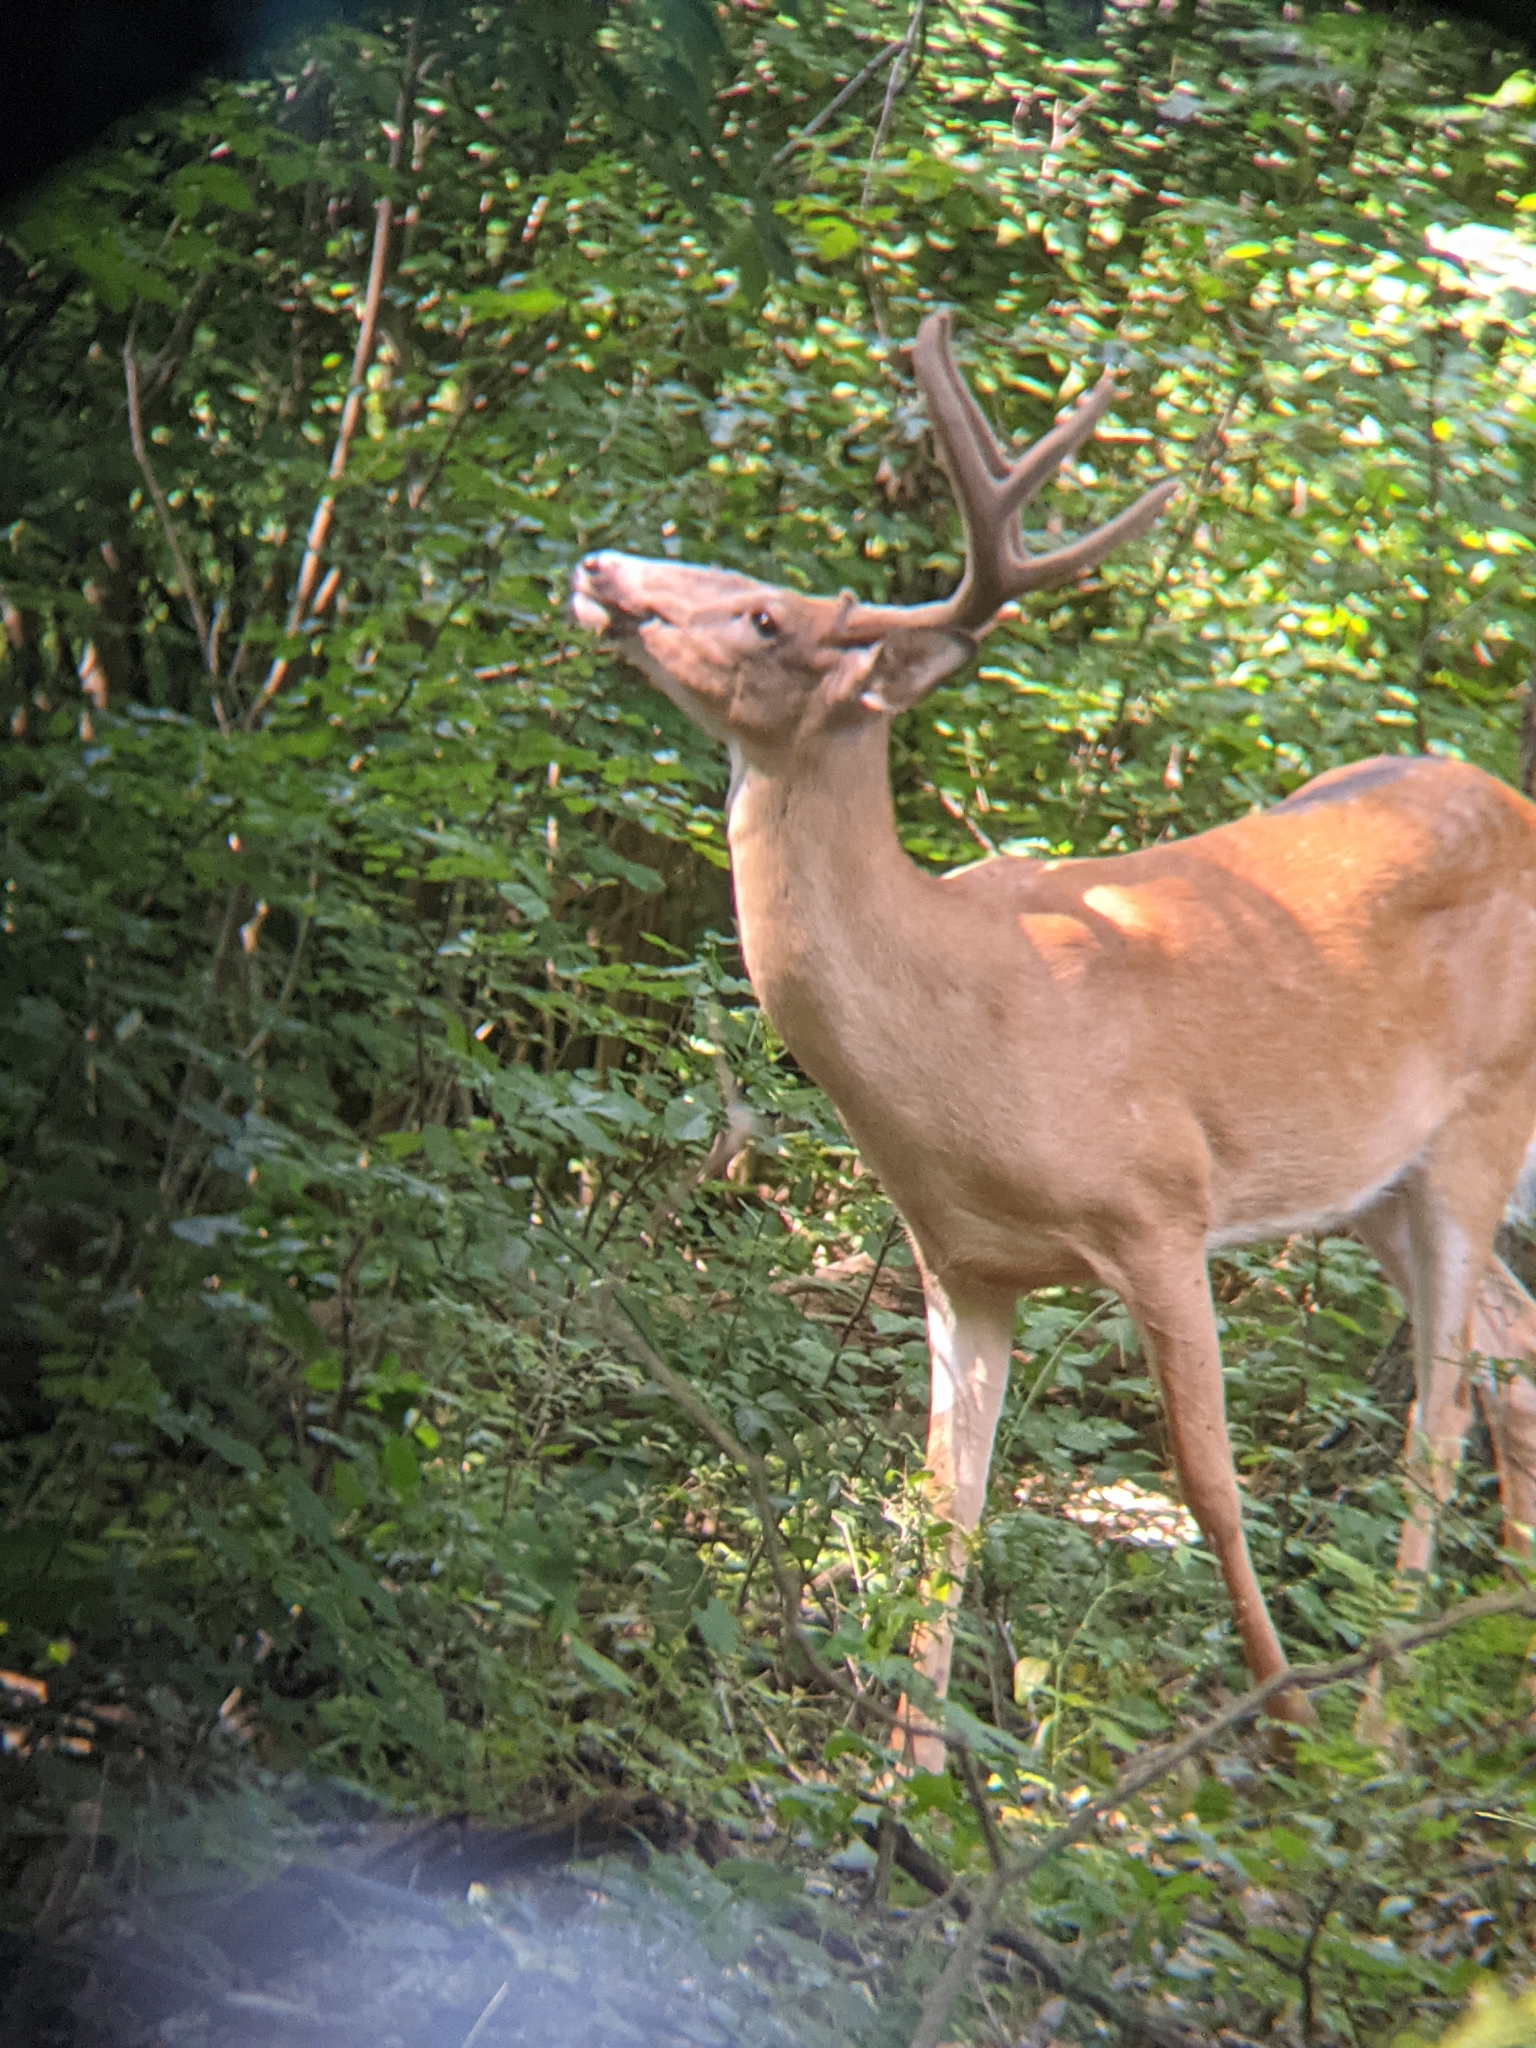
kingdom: Animalia
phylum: Chordata
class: Mammalia
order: Artiodactyla
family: Cervidae
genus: Odocoileus
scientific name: Odocoileus virginianus
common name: White-tailed deer
